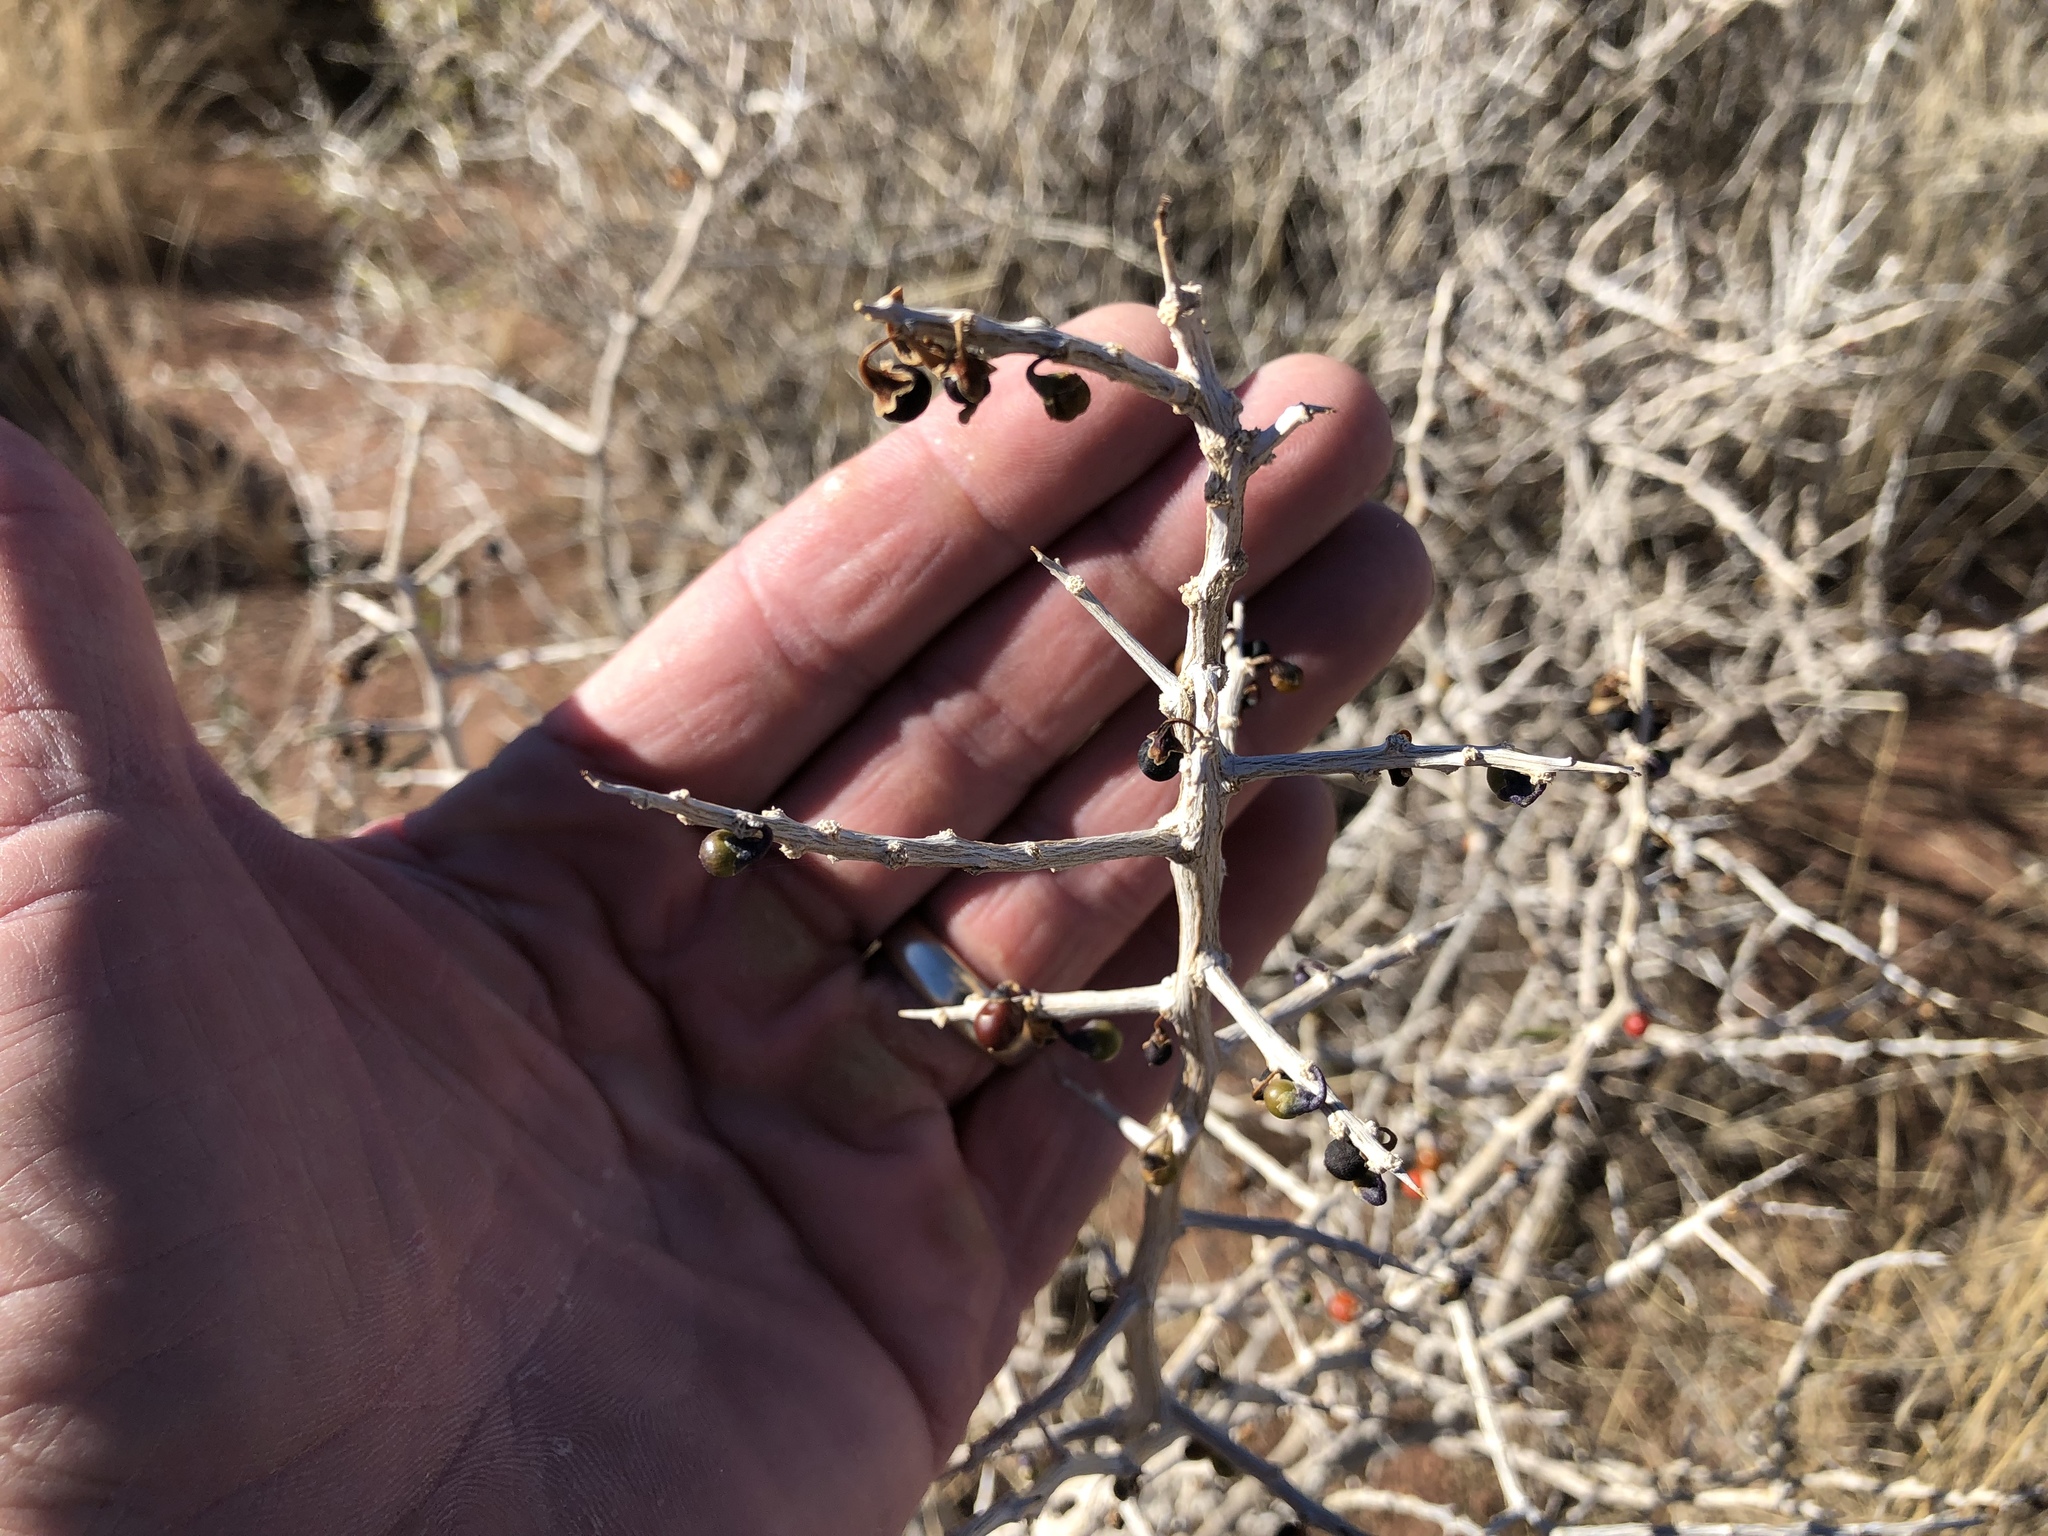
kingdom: Plantae
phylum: Tracheophyta
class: Magnoliopsida
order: Rosales
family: Rhamnaceae
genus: Sarcomphalus
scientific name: Sarcomphalus obtusifolius
